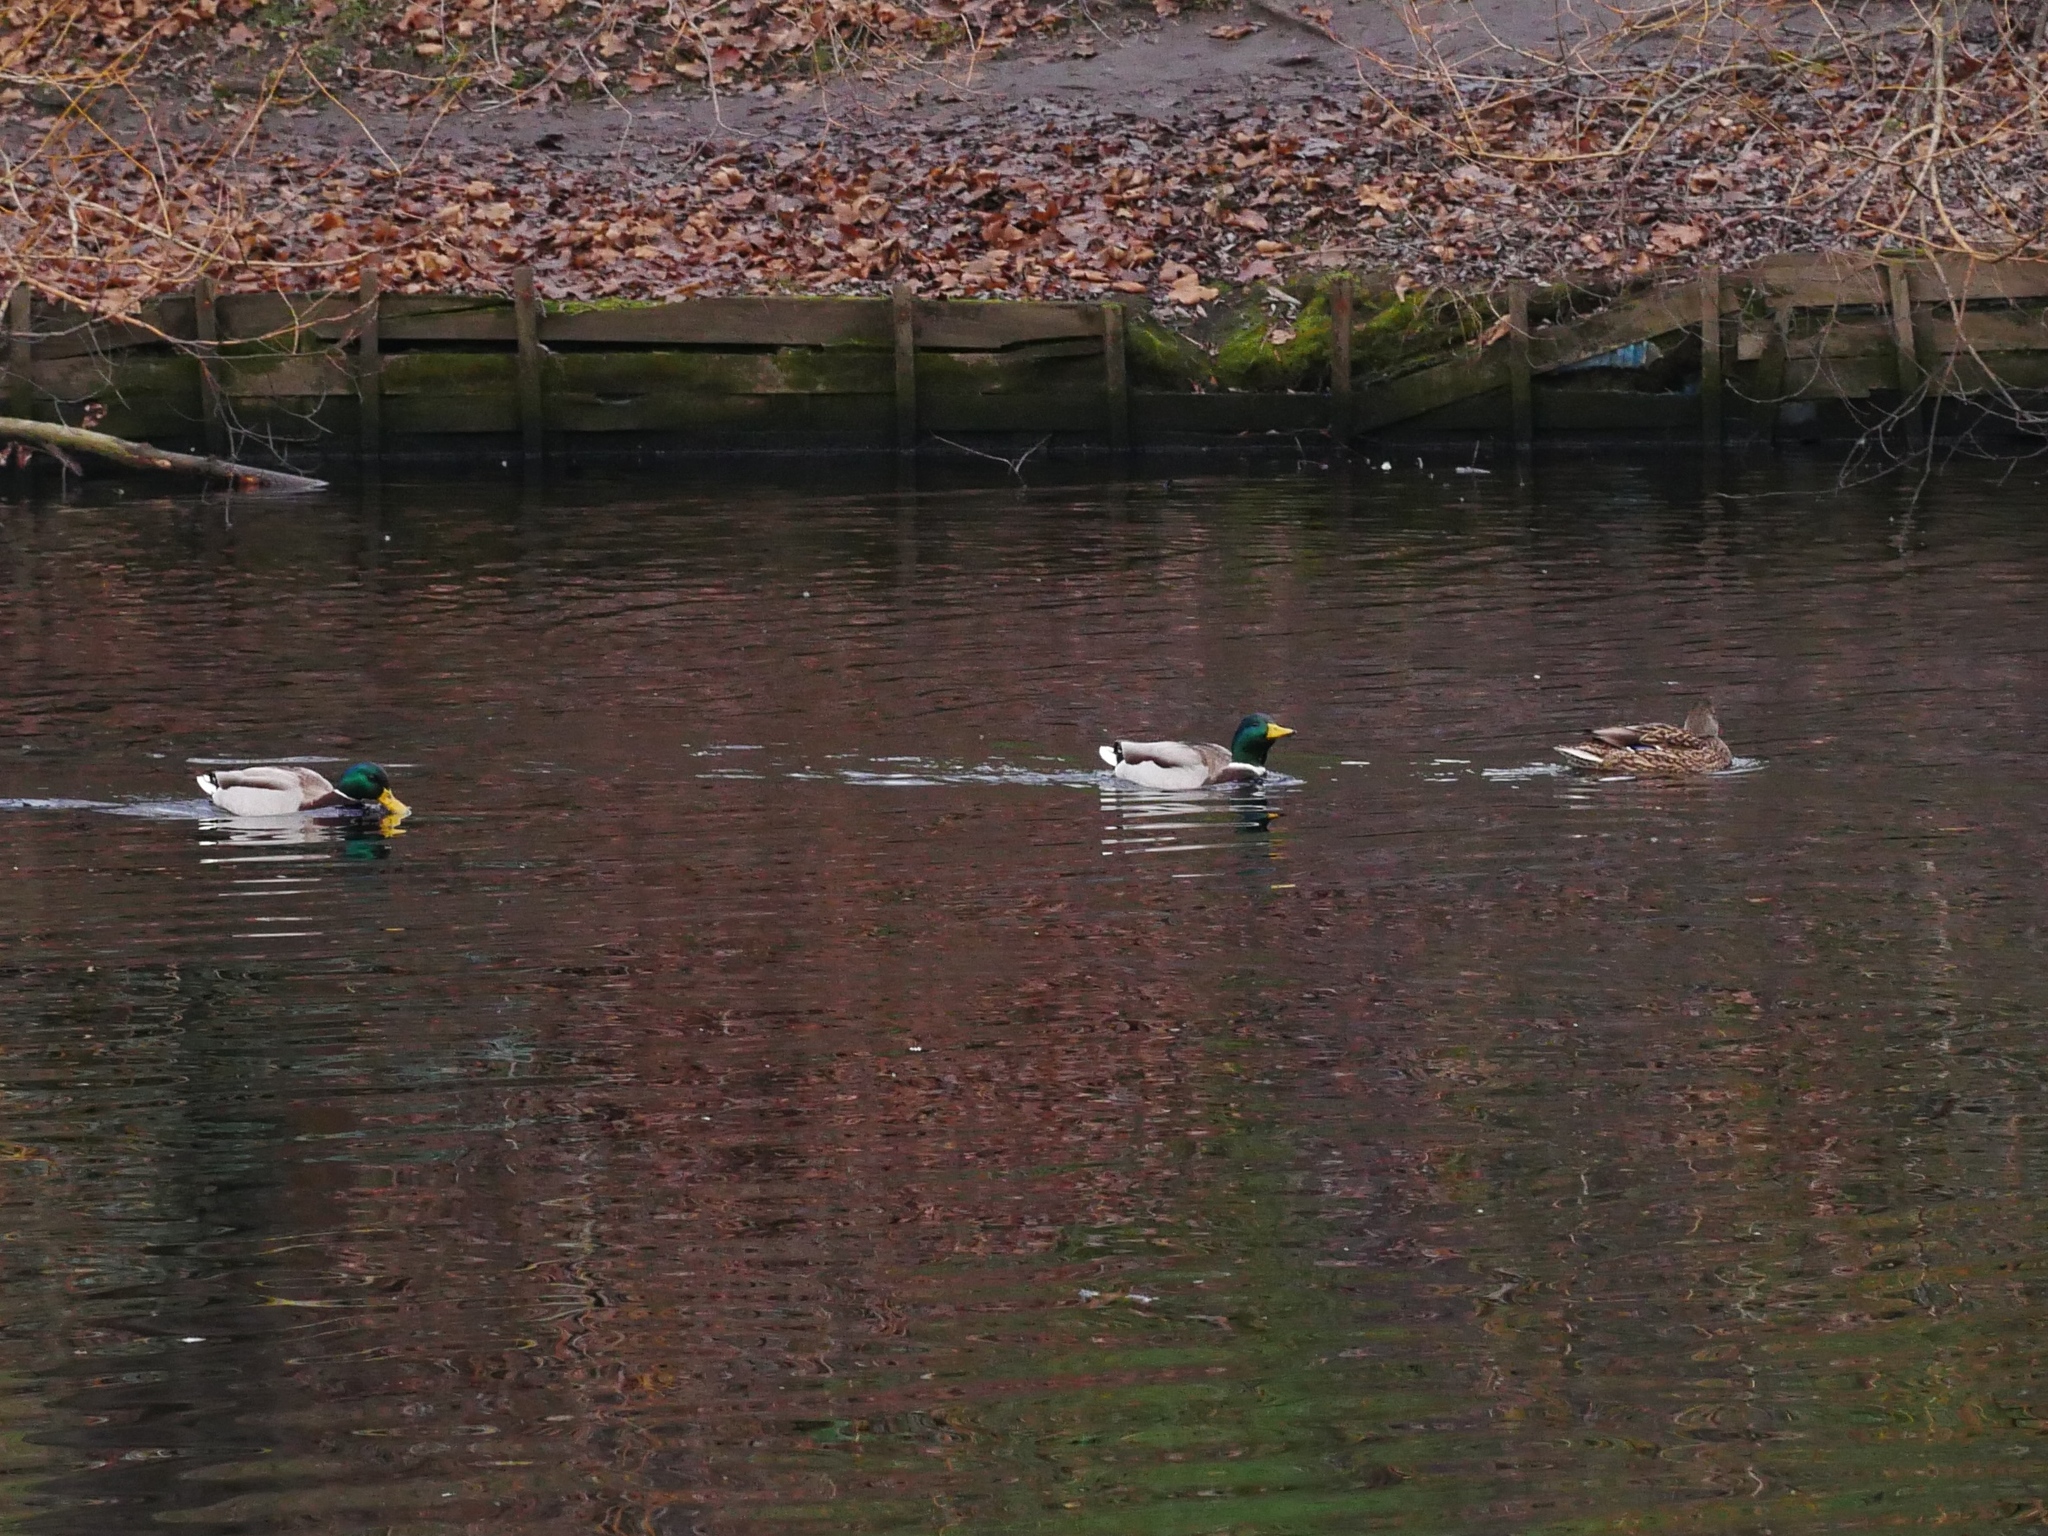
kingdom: Animalia
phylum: Chordata
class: Aves
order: Anseriformes
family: Anatidae
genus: Anas
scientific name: Anas platyrhynchos
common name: Mallard
